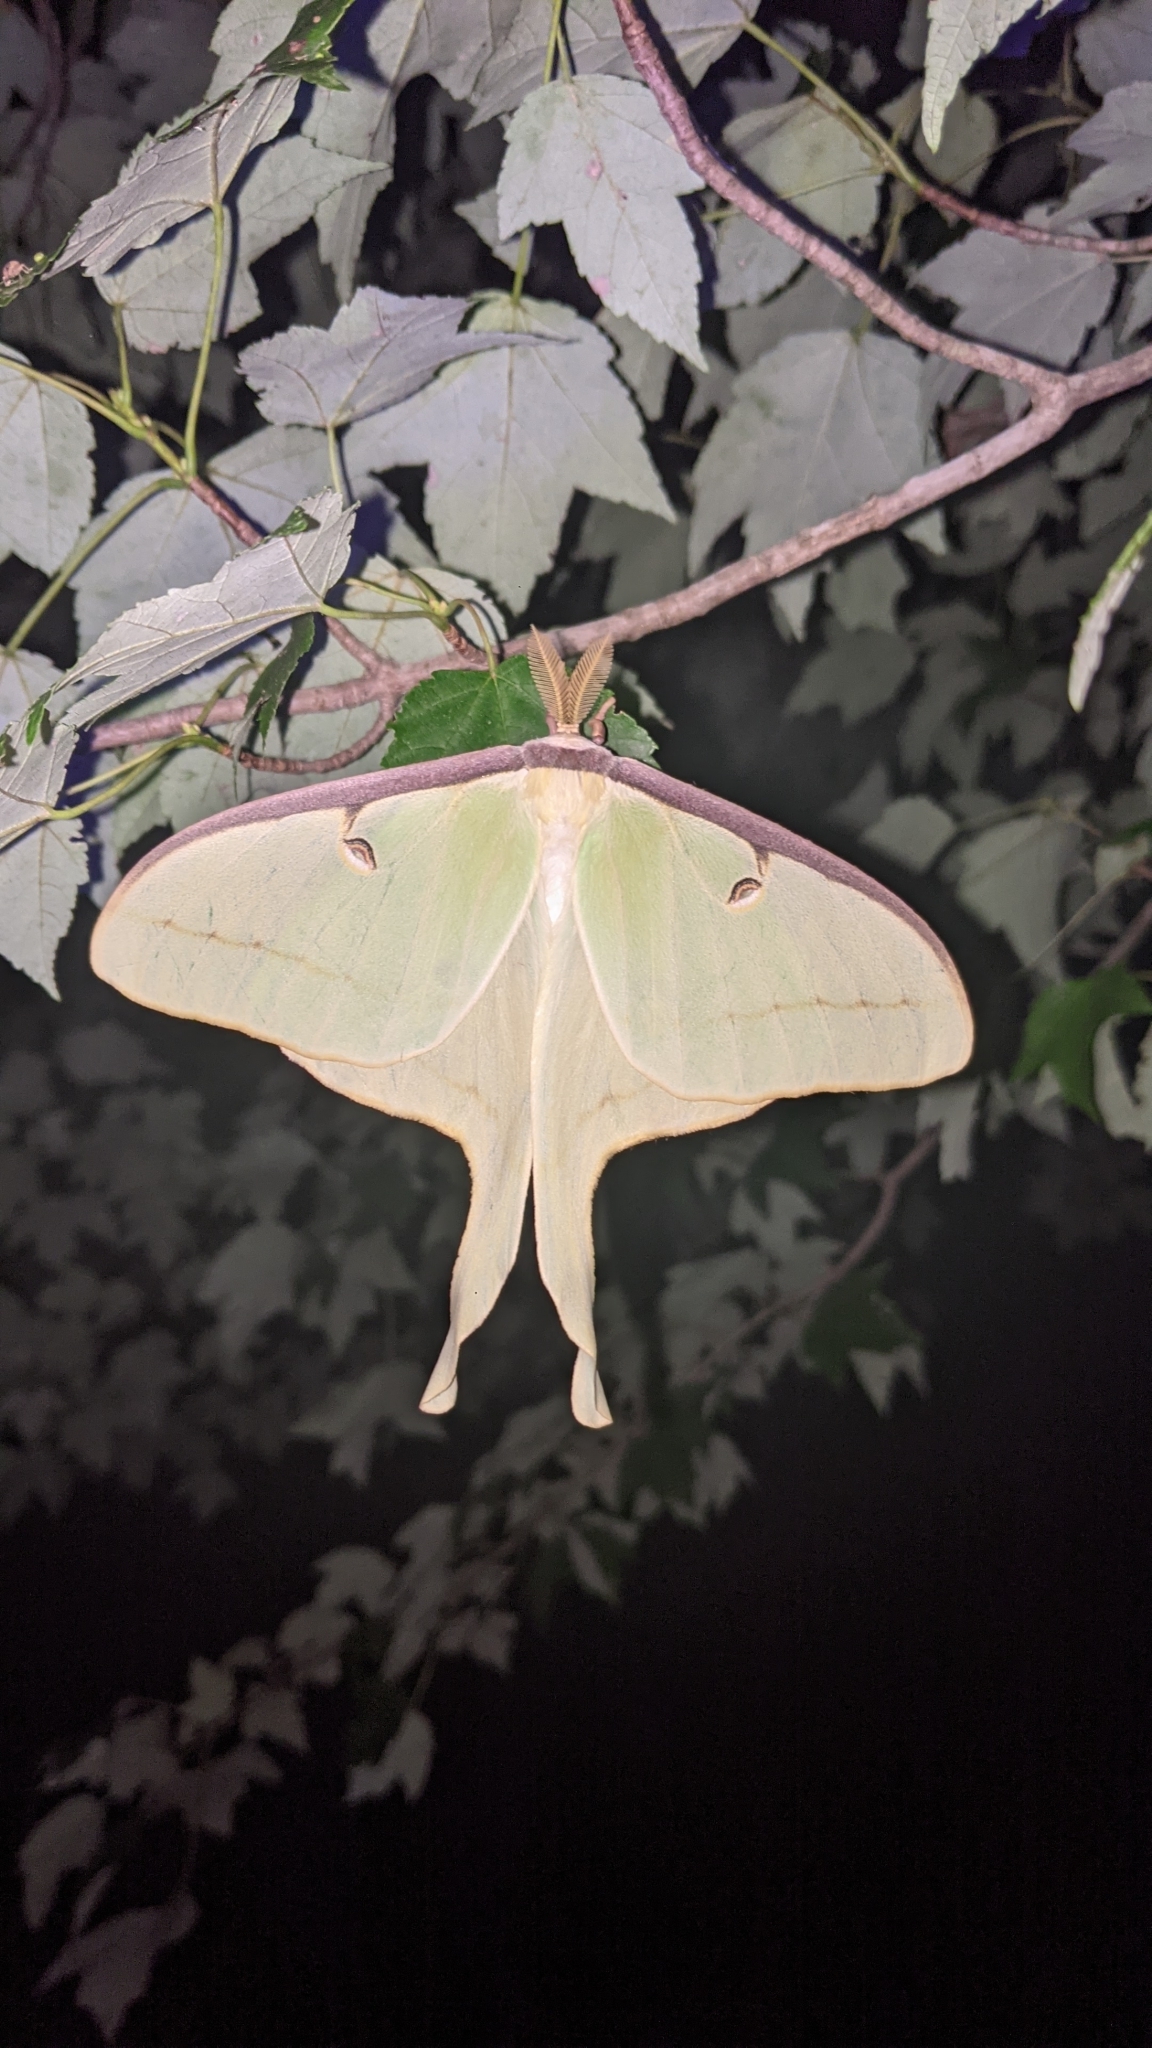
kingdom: Animalia
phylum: Arthropoda
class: Insecta
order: Lepidoptera
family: Saturniidae
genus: Actias
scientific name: Actias luna
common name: Luna moth
